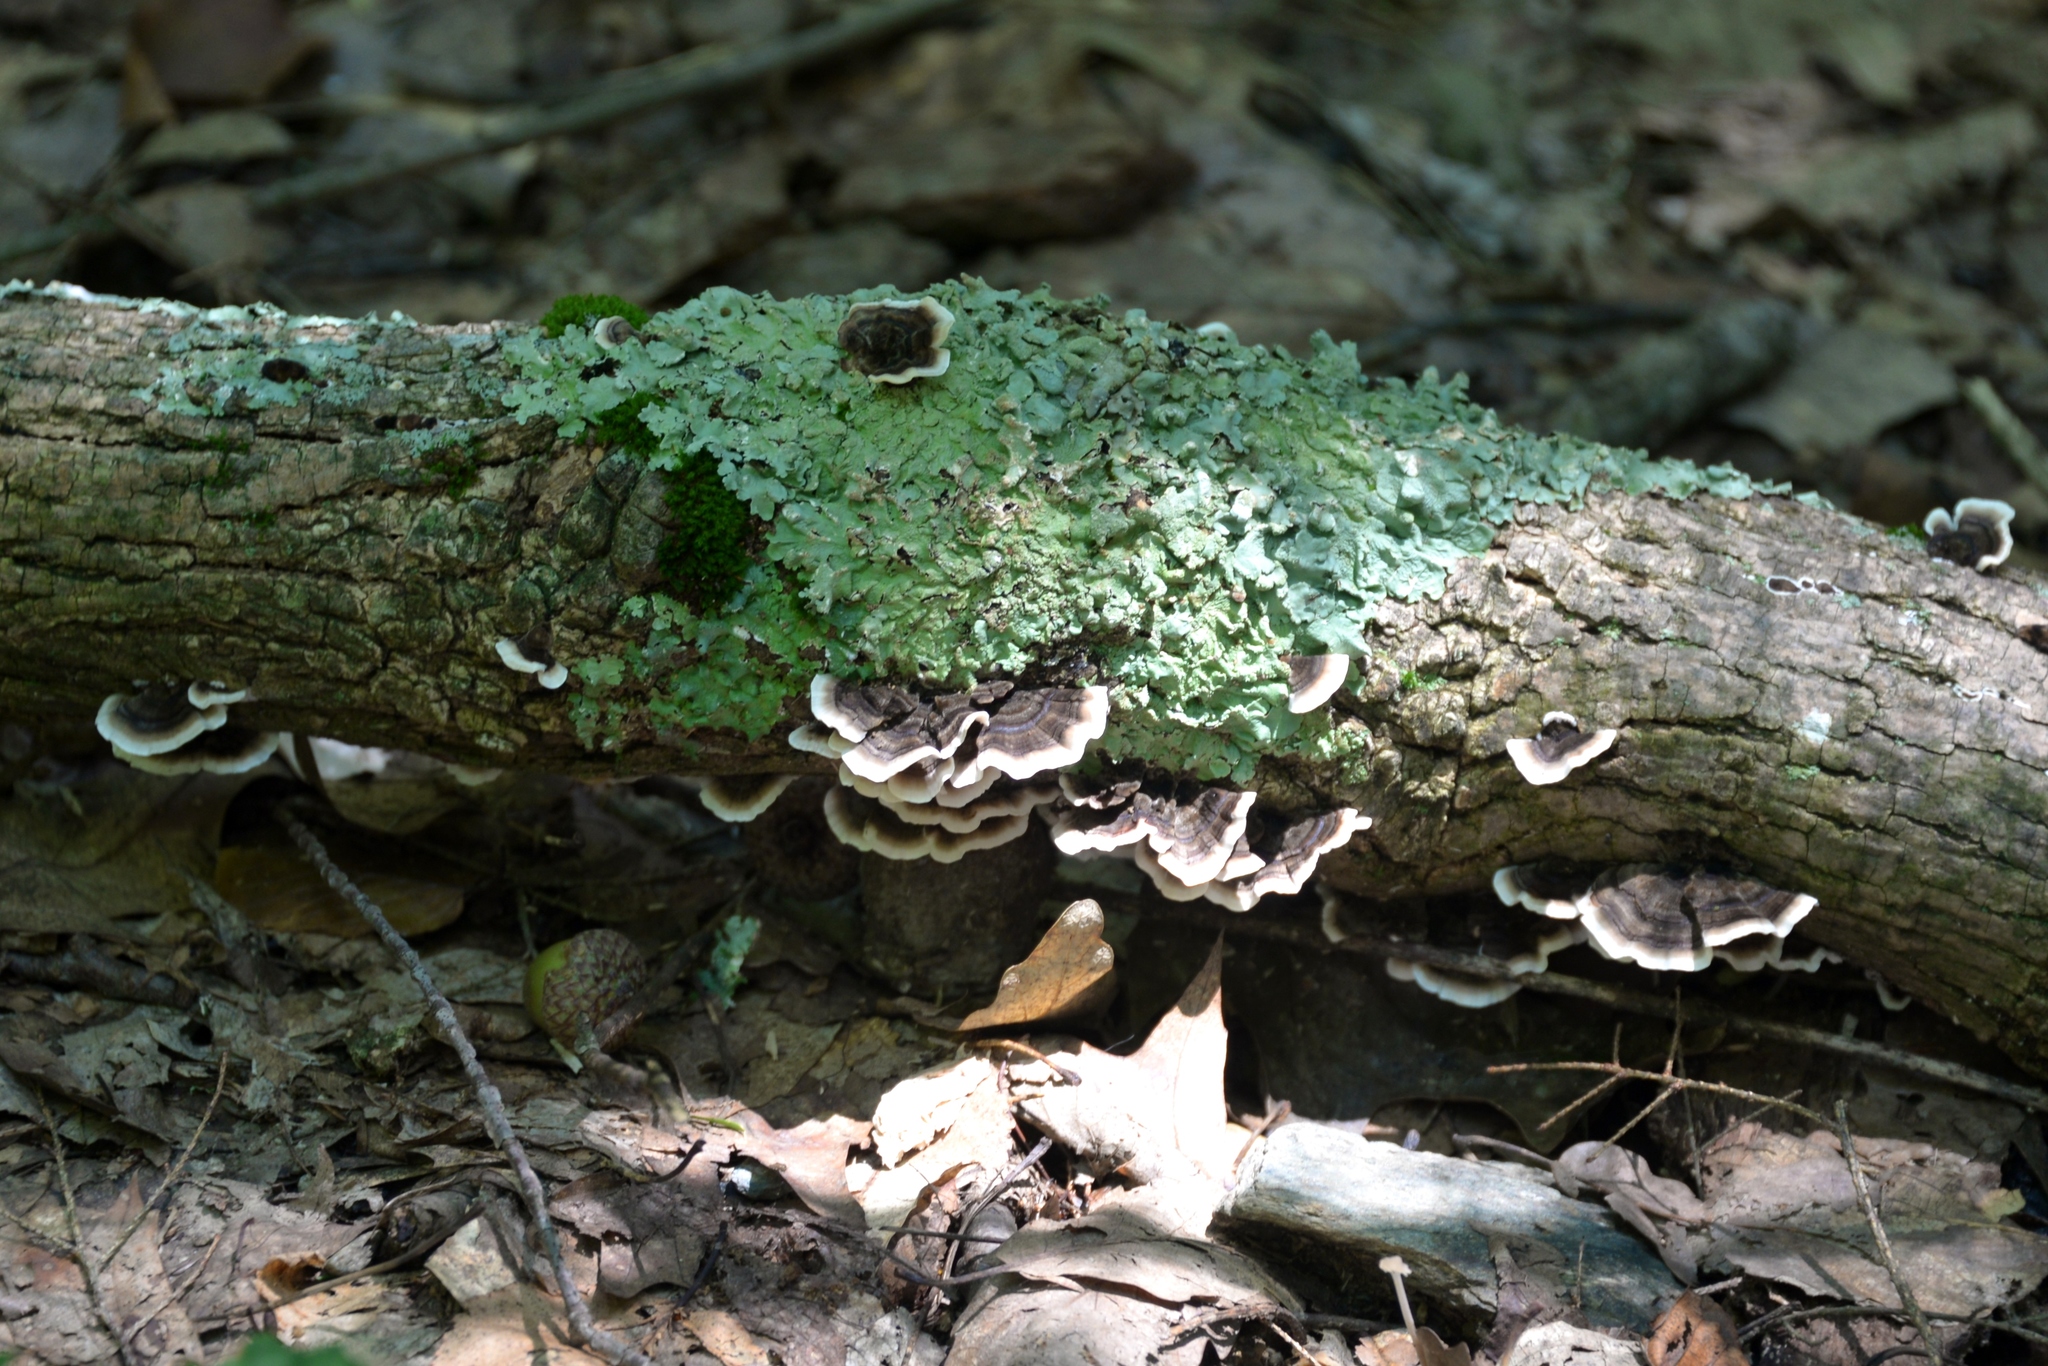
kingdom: Fungi
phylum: Ascomycota
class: Lecanoromycetes
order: Lecanorales
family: Parmeliaceae
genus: Flavoparmelia
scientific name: Flavoparmelia caperata
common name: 40-mile per hour lichen
